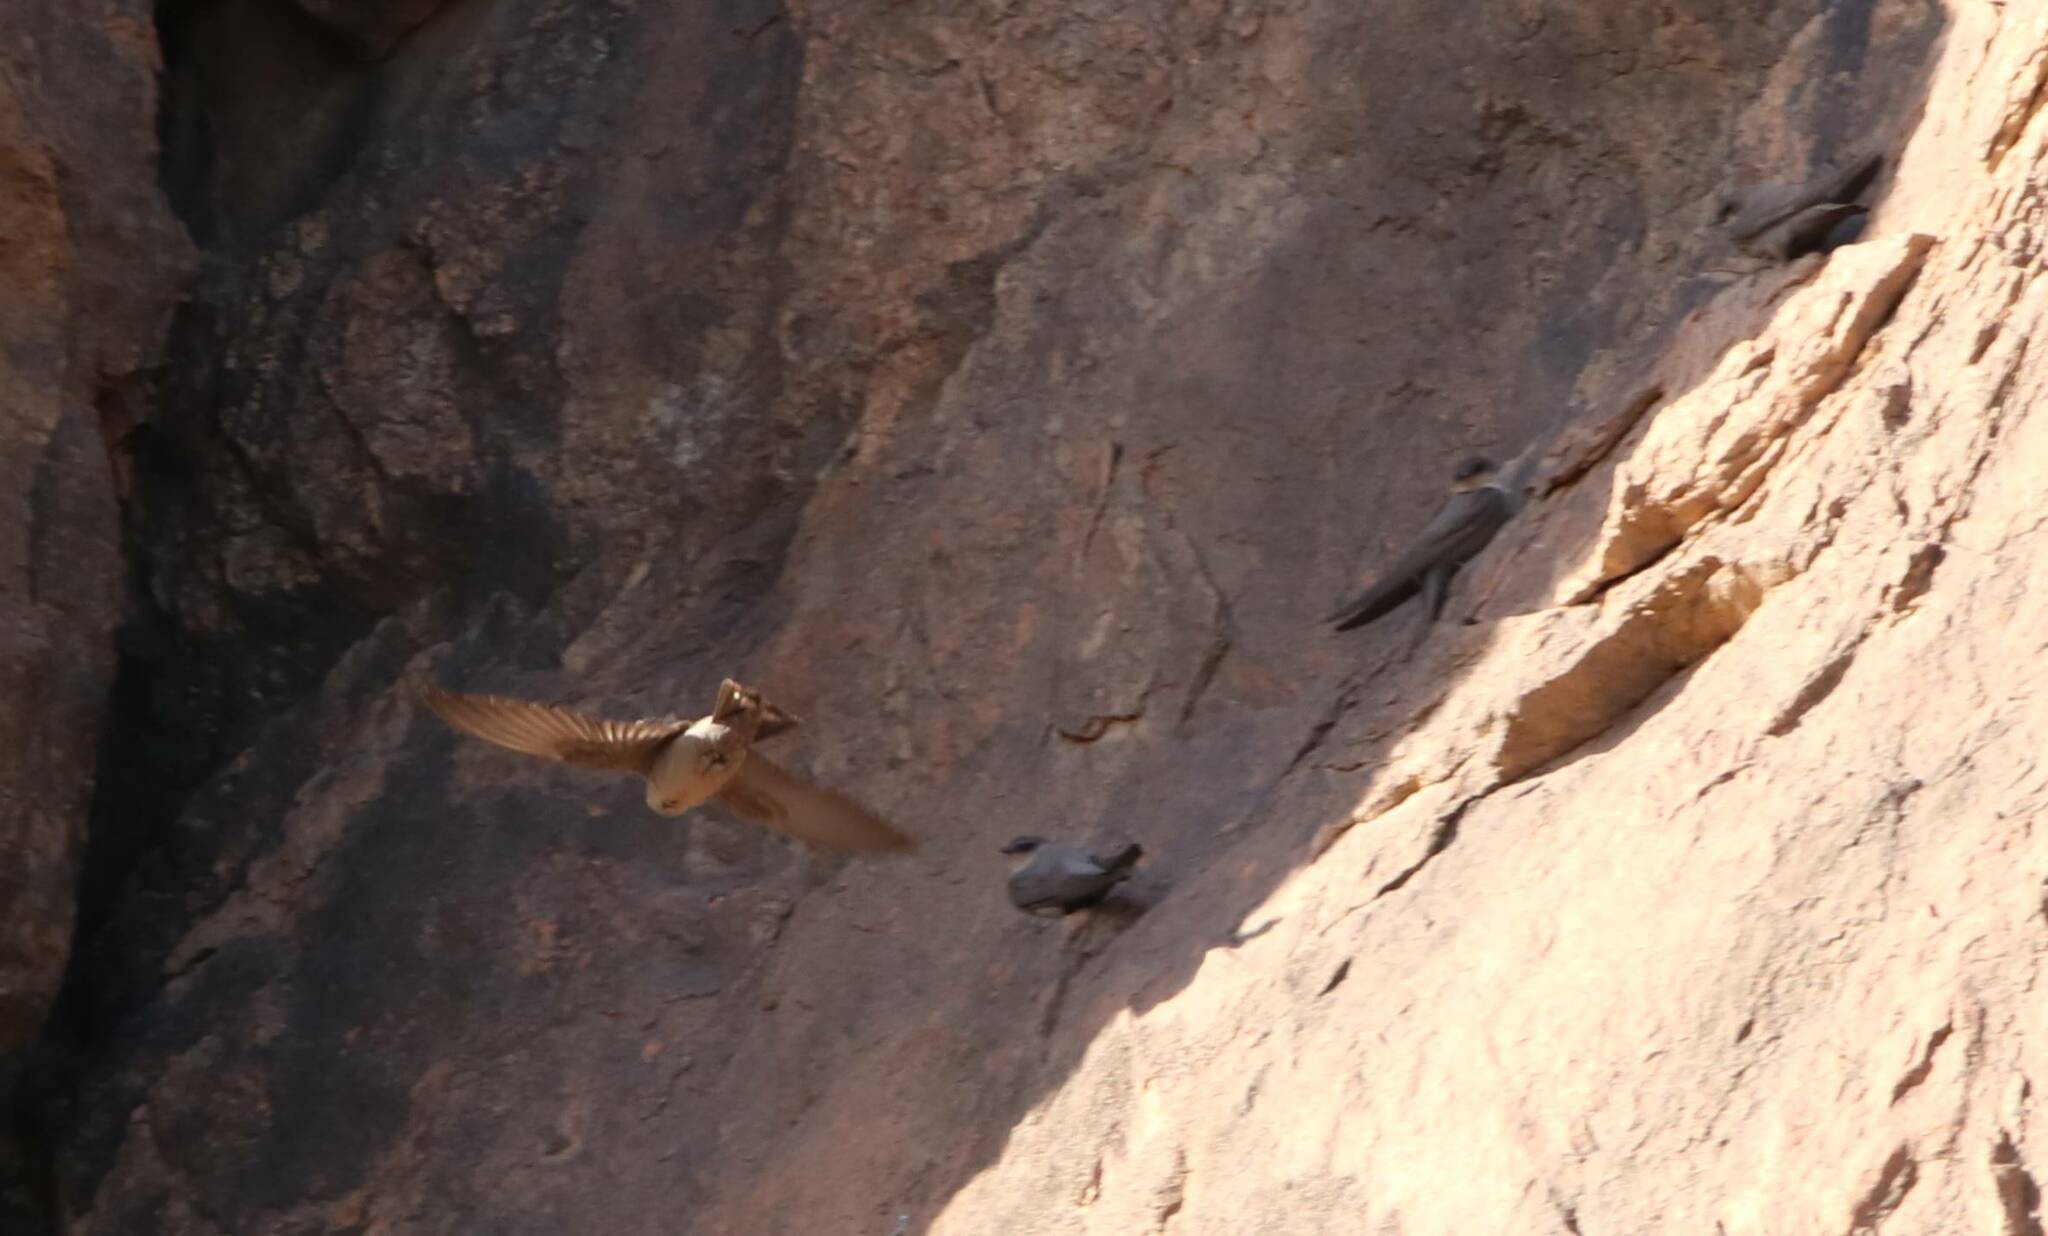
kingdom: Animalia
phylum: Chordata
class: Aves
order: Passeriformes
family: Hirundinidae
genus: Ptyonoprogne
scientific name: Ptyonoprogne fuligula
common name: Rock martin
